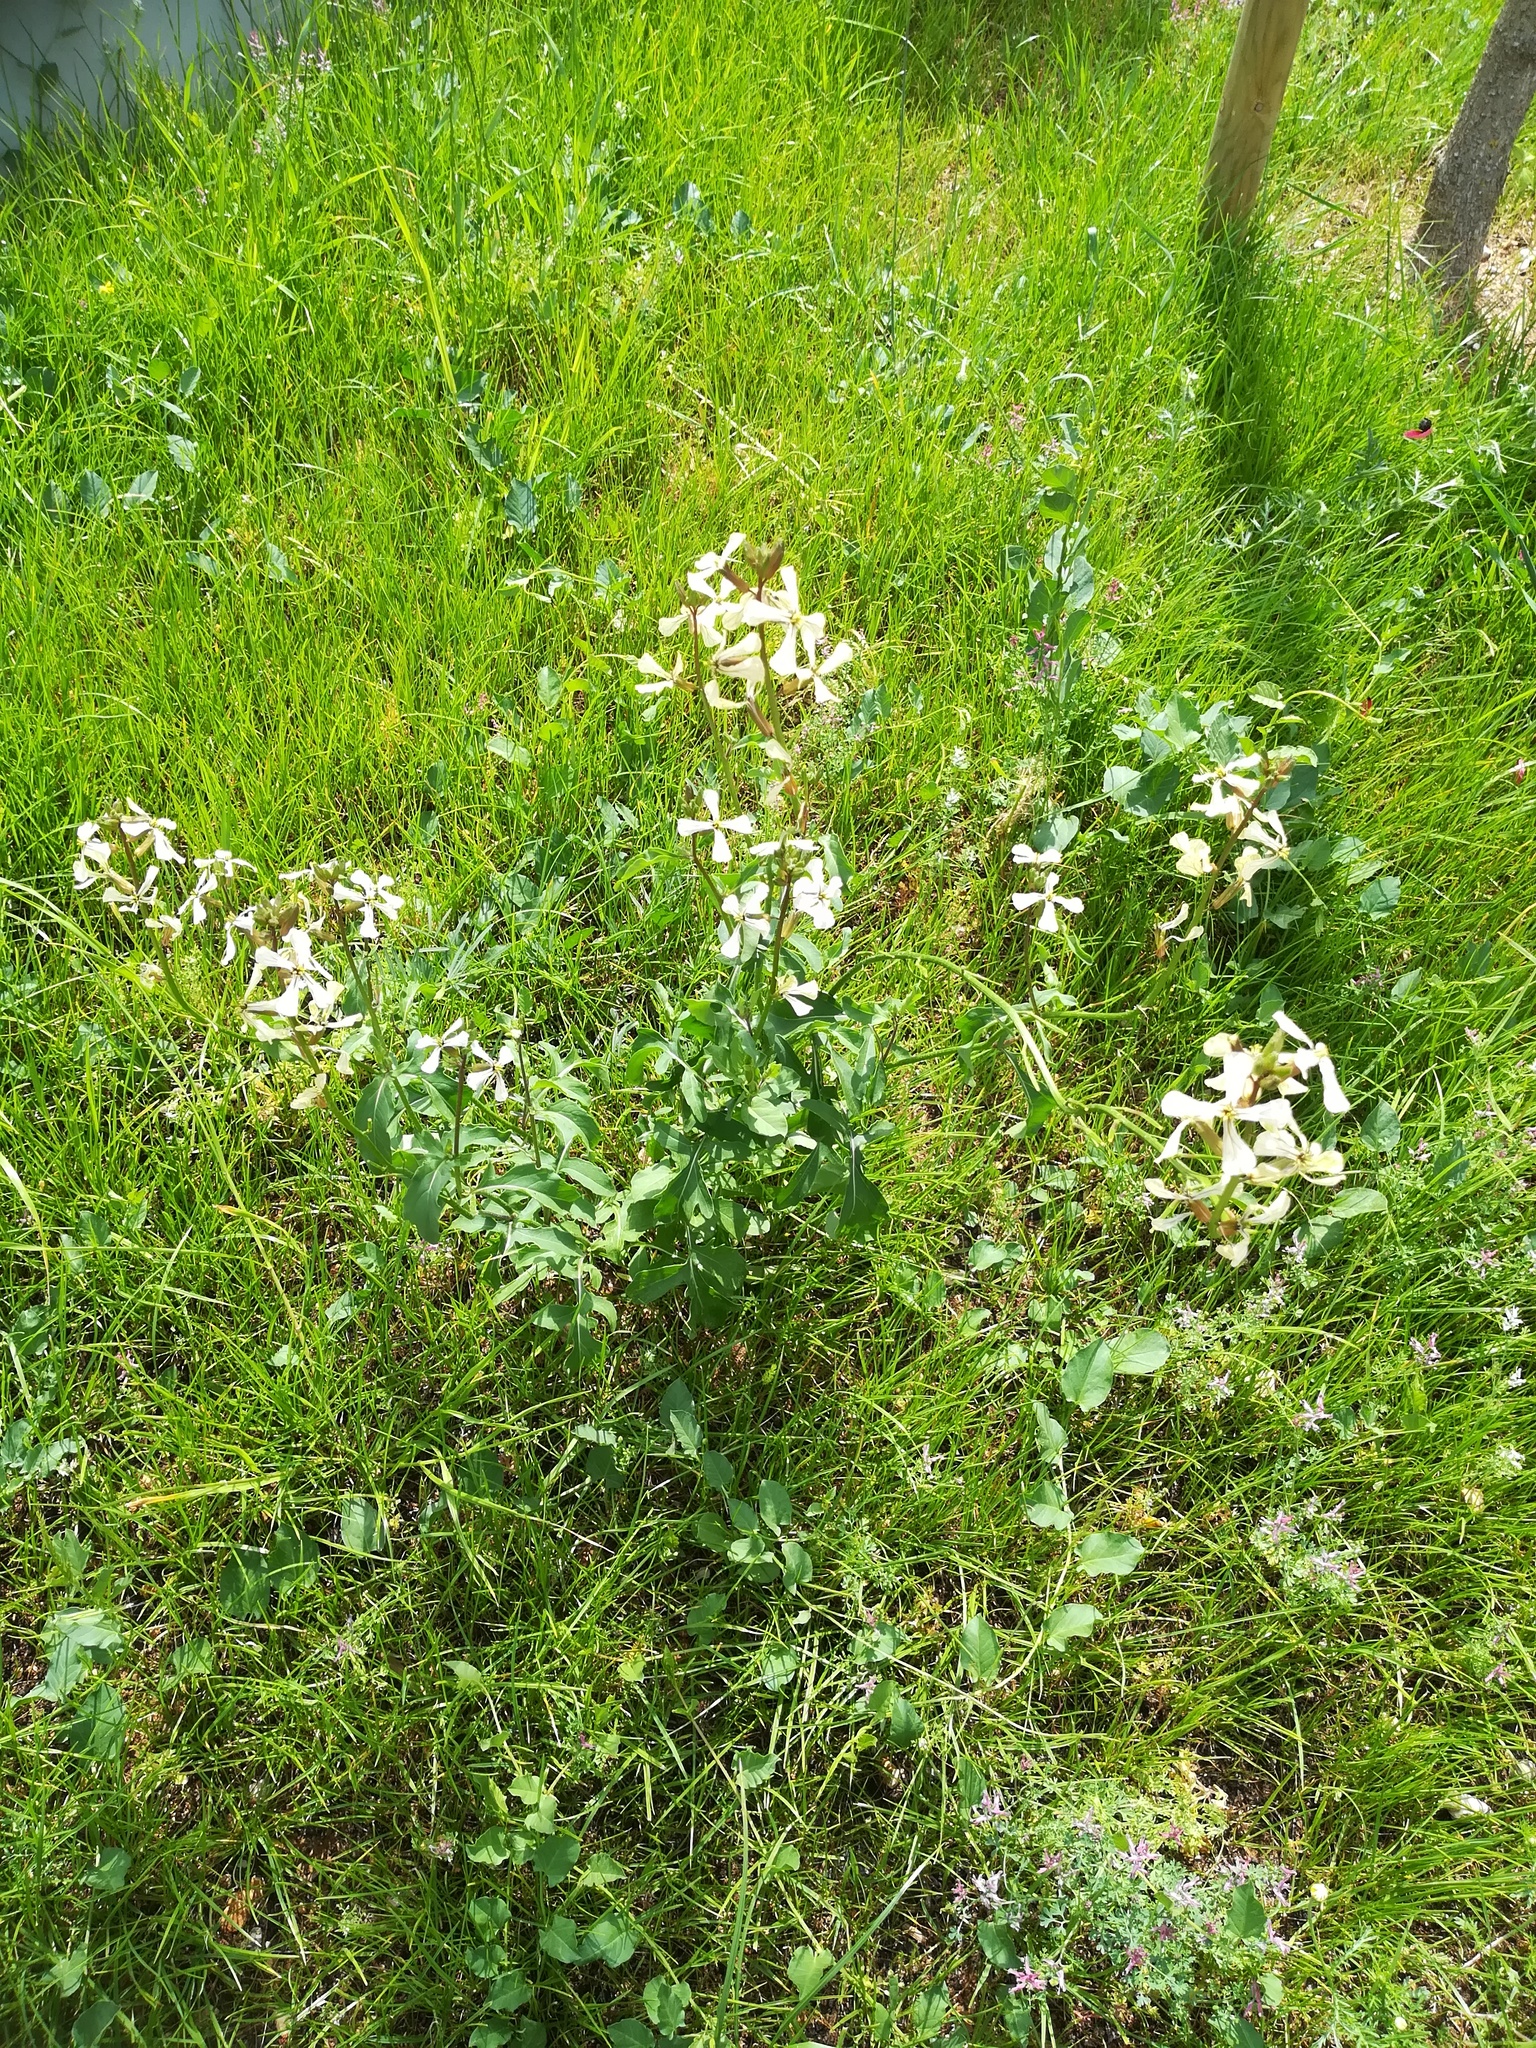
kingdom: Plantae
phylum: Tracheophyta
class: Magnoliopsida
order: Brassicales
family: Brassicaceae
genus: Eruca
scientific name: Eruca vesicaria
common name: Garden rocket
